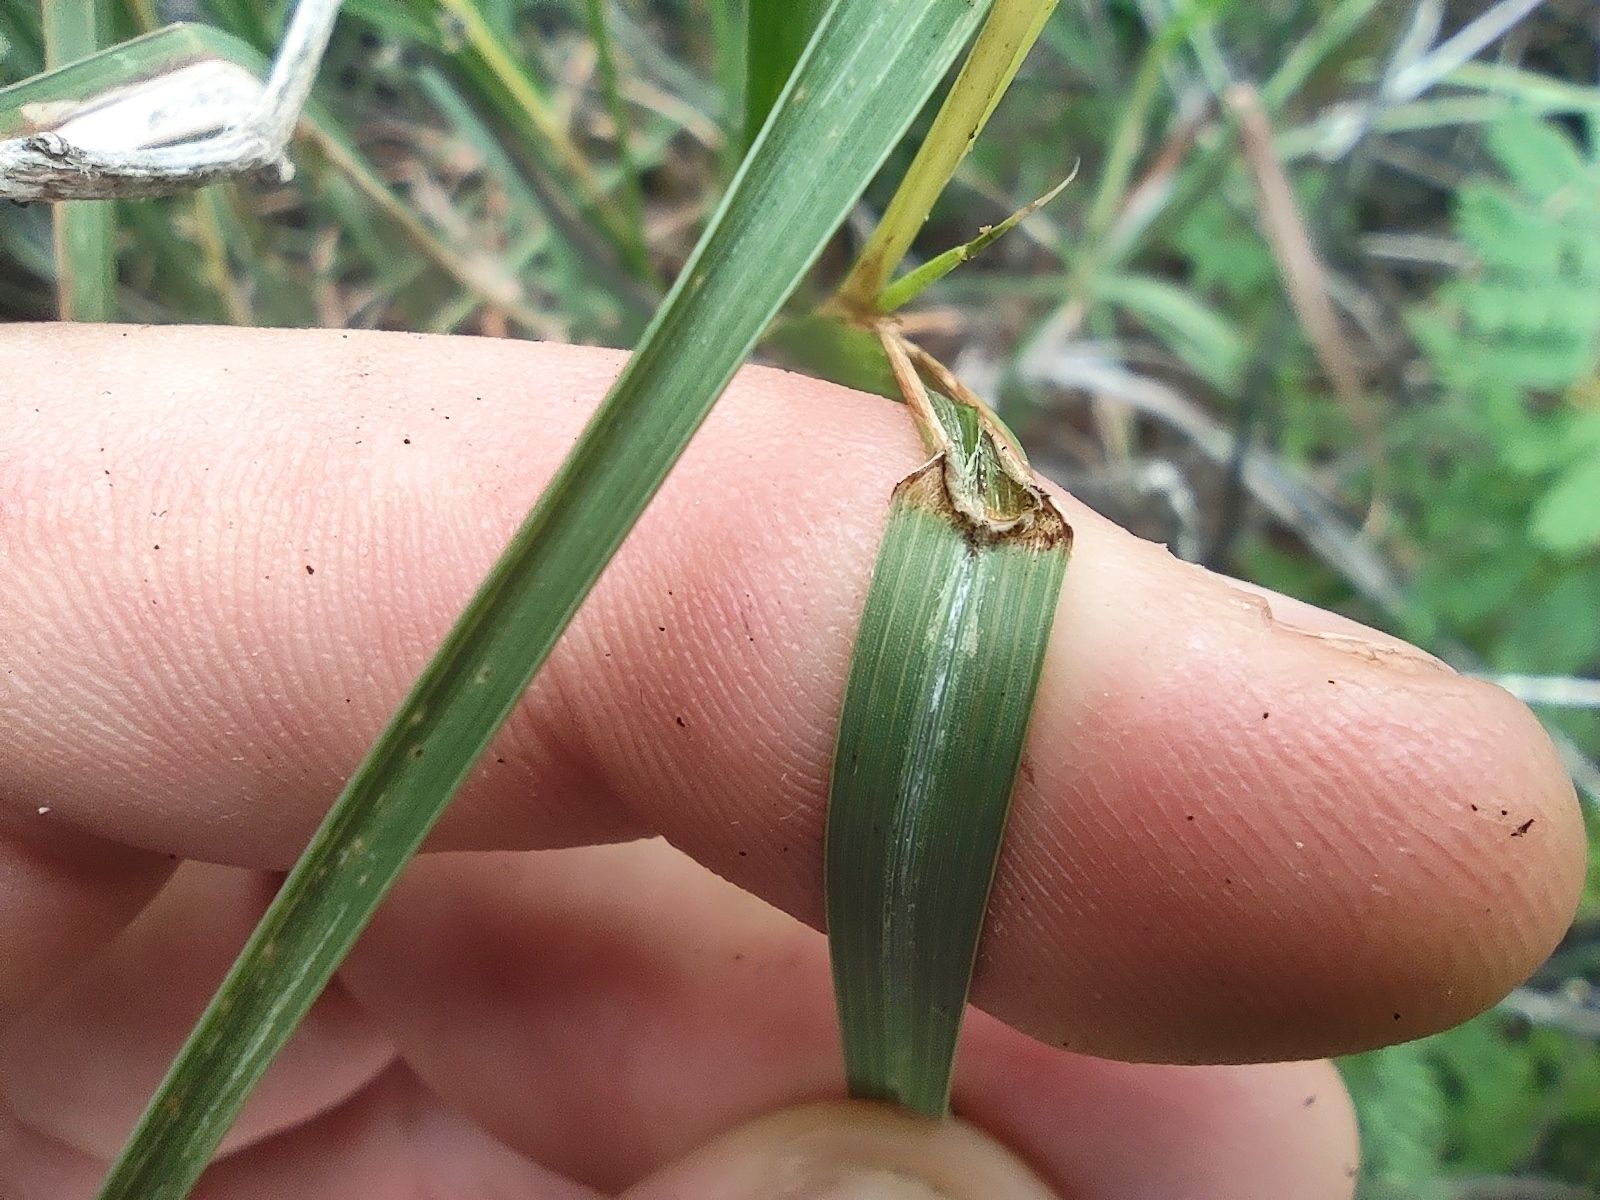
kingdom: Plantae
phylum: Tracheophyta
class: Liliopsida
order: Poales
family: Poaceae
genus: Heteropogon
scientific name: Heteropogon contortus
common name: Tanglehead
